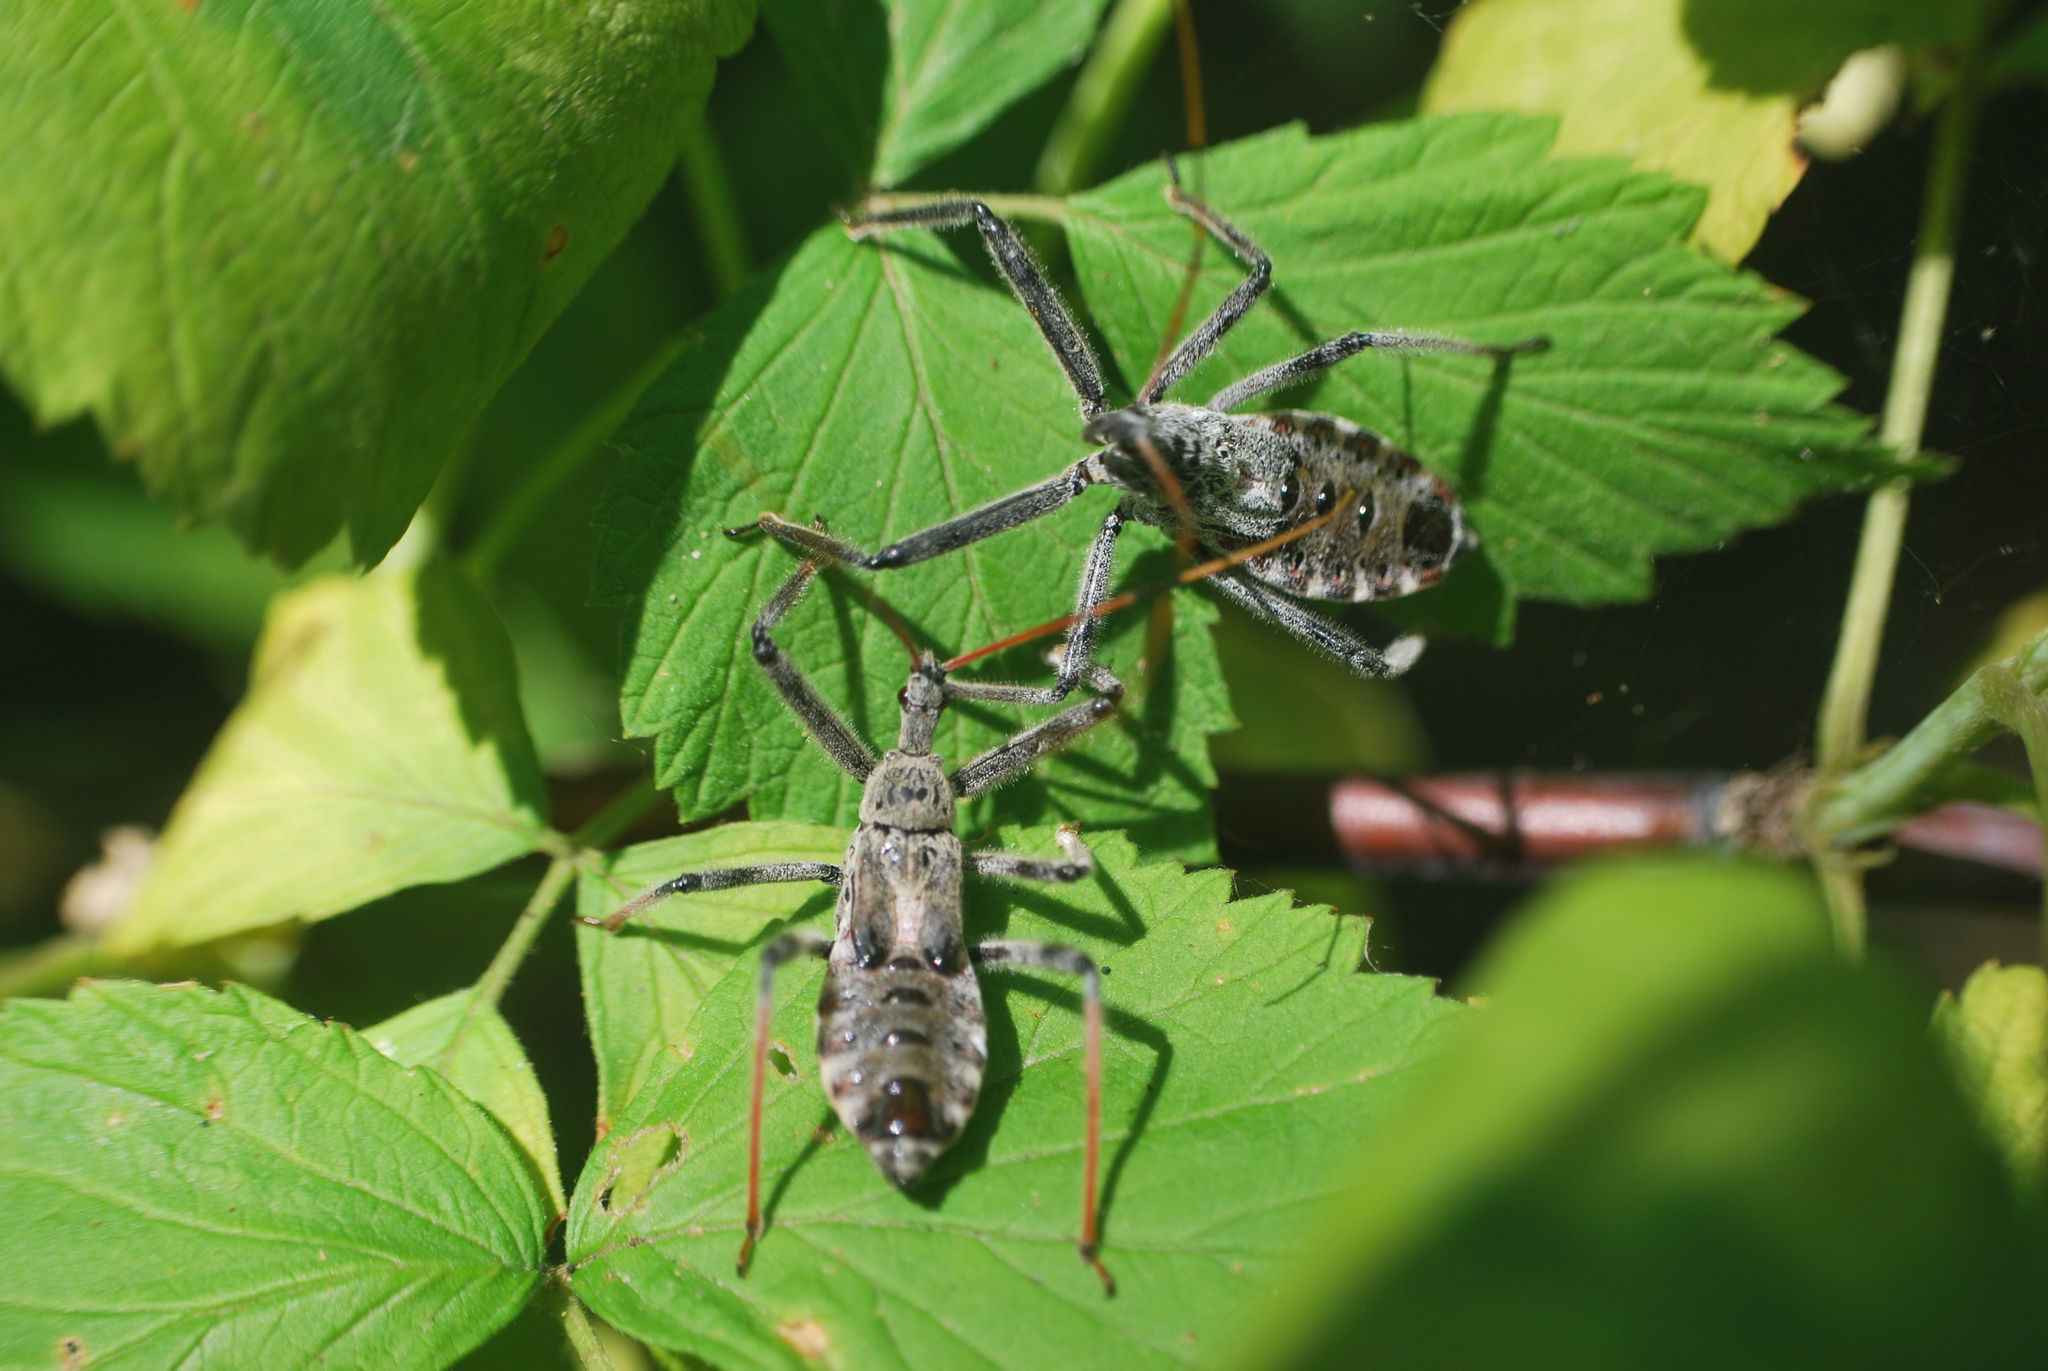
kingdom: Animalia
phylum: Arthropoda
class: Insecta
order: Hemiptera
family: Reduviidae
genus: Arilus
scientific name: Arilus cristatus
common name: North american wheel bug
